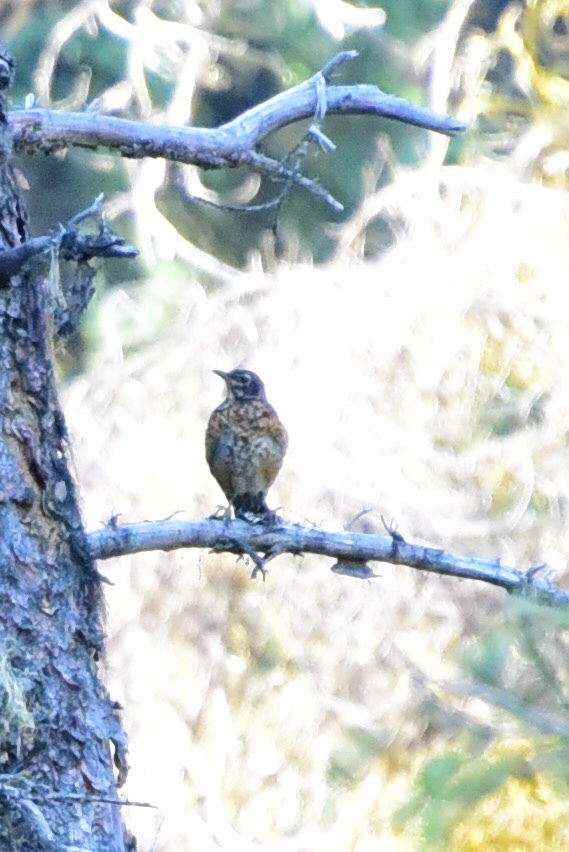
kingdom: Animalia
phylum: Chordata
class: Aves
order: Passeriformes
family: Turdidae
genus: Turdus
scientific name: Turdus migratorius
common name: American robin
